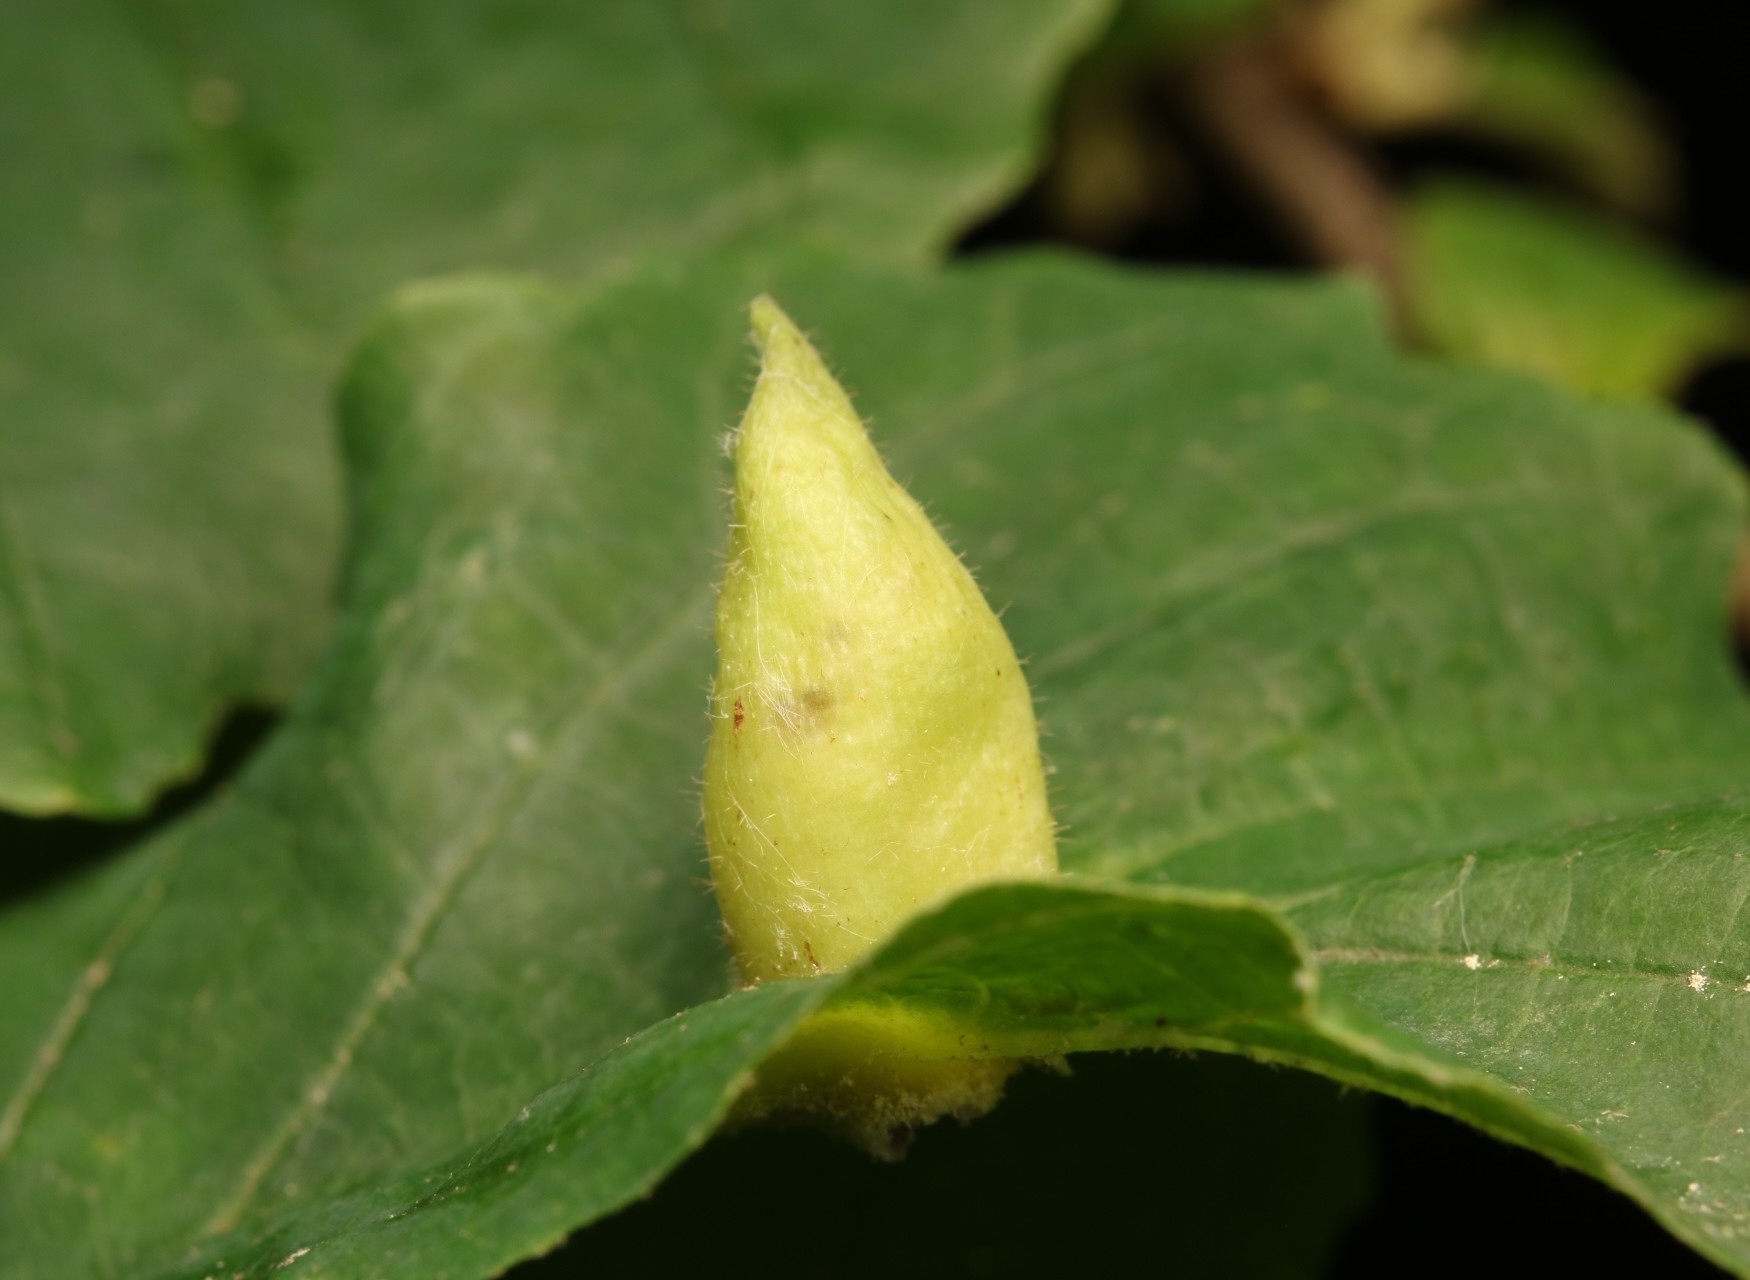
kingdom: Animalia
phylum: Arthropoda
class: Insecta
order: Hemiptera
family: Aphididae
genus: Hormaphis
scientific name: Hormaphis hamamelidis
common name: Witch-hazel cone gall aphid
